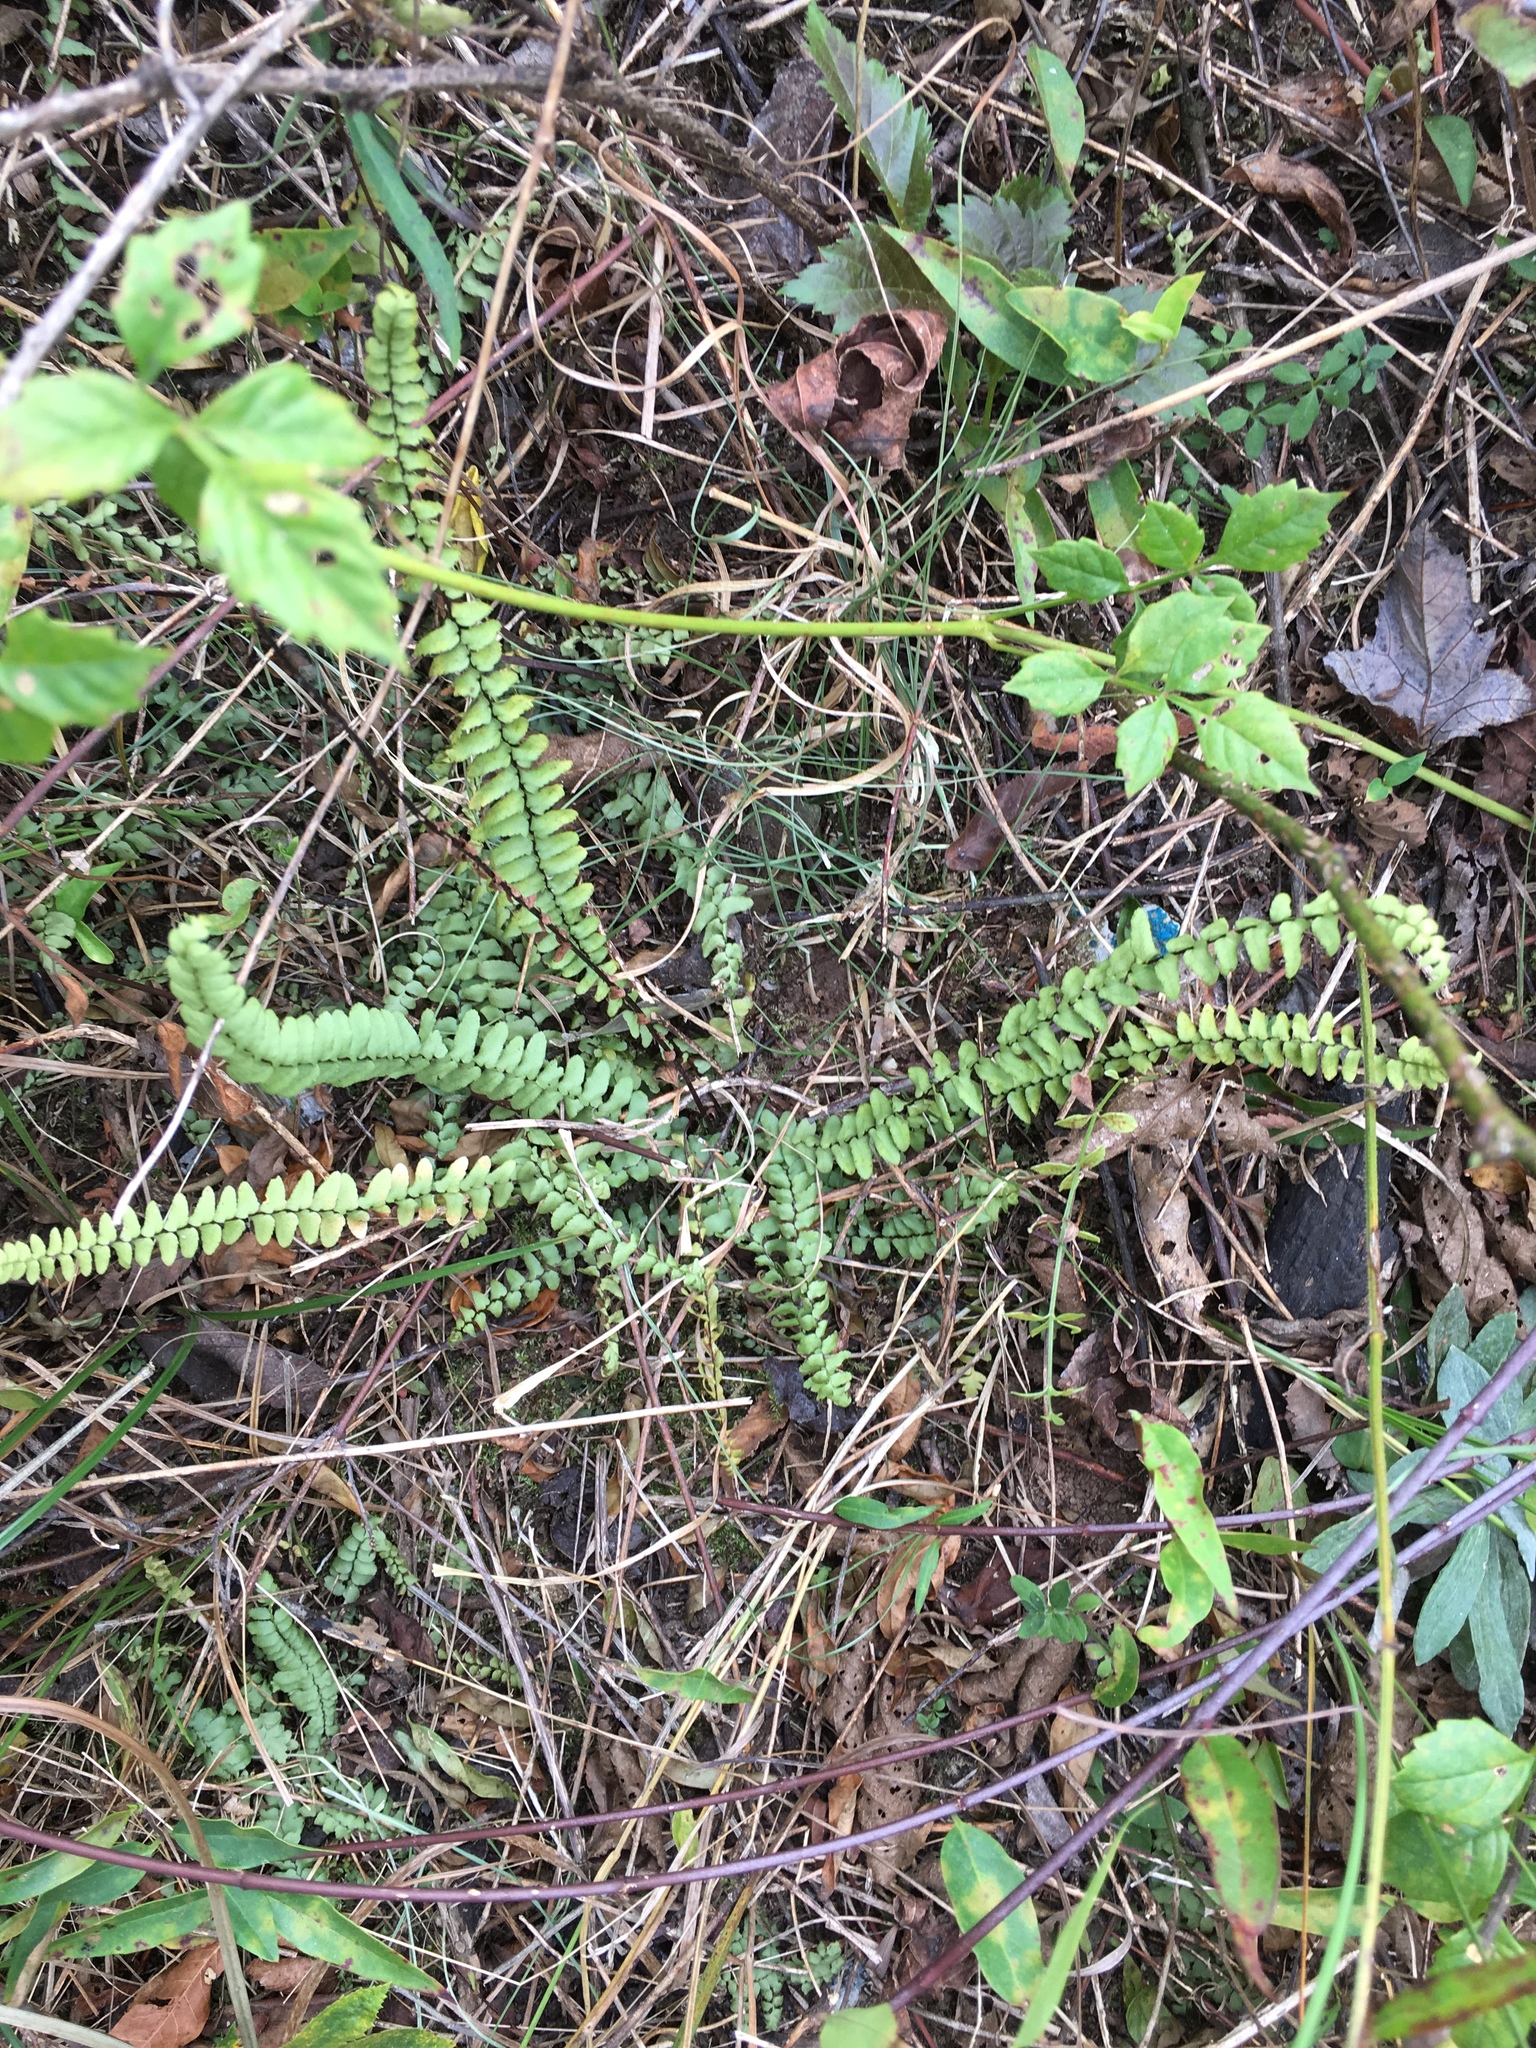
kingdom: Plantae
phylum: Tracheophyta
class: Polypodiopsida
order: Polypodiales
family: Aspleniaceae
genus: Asplenium
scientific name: Asplenium platyneuron
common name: Ebony spleenwort
